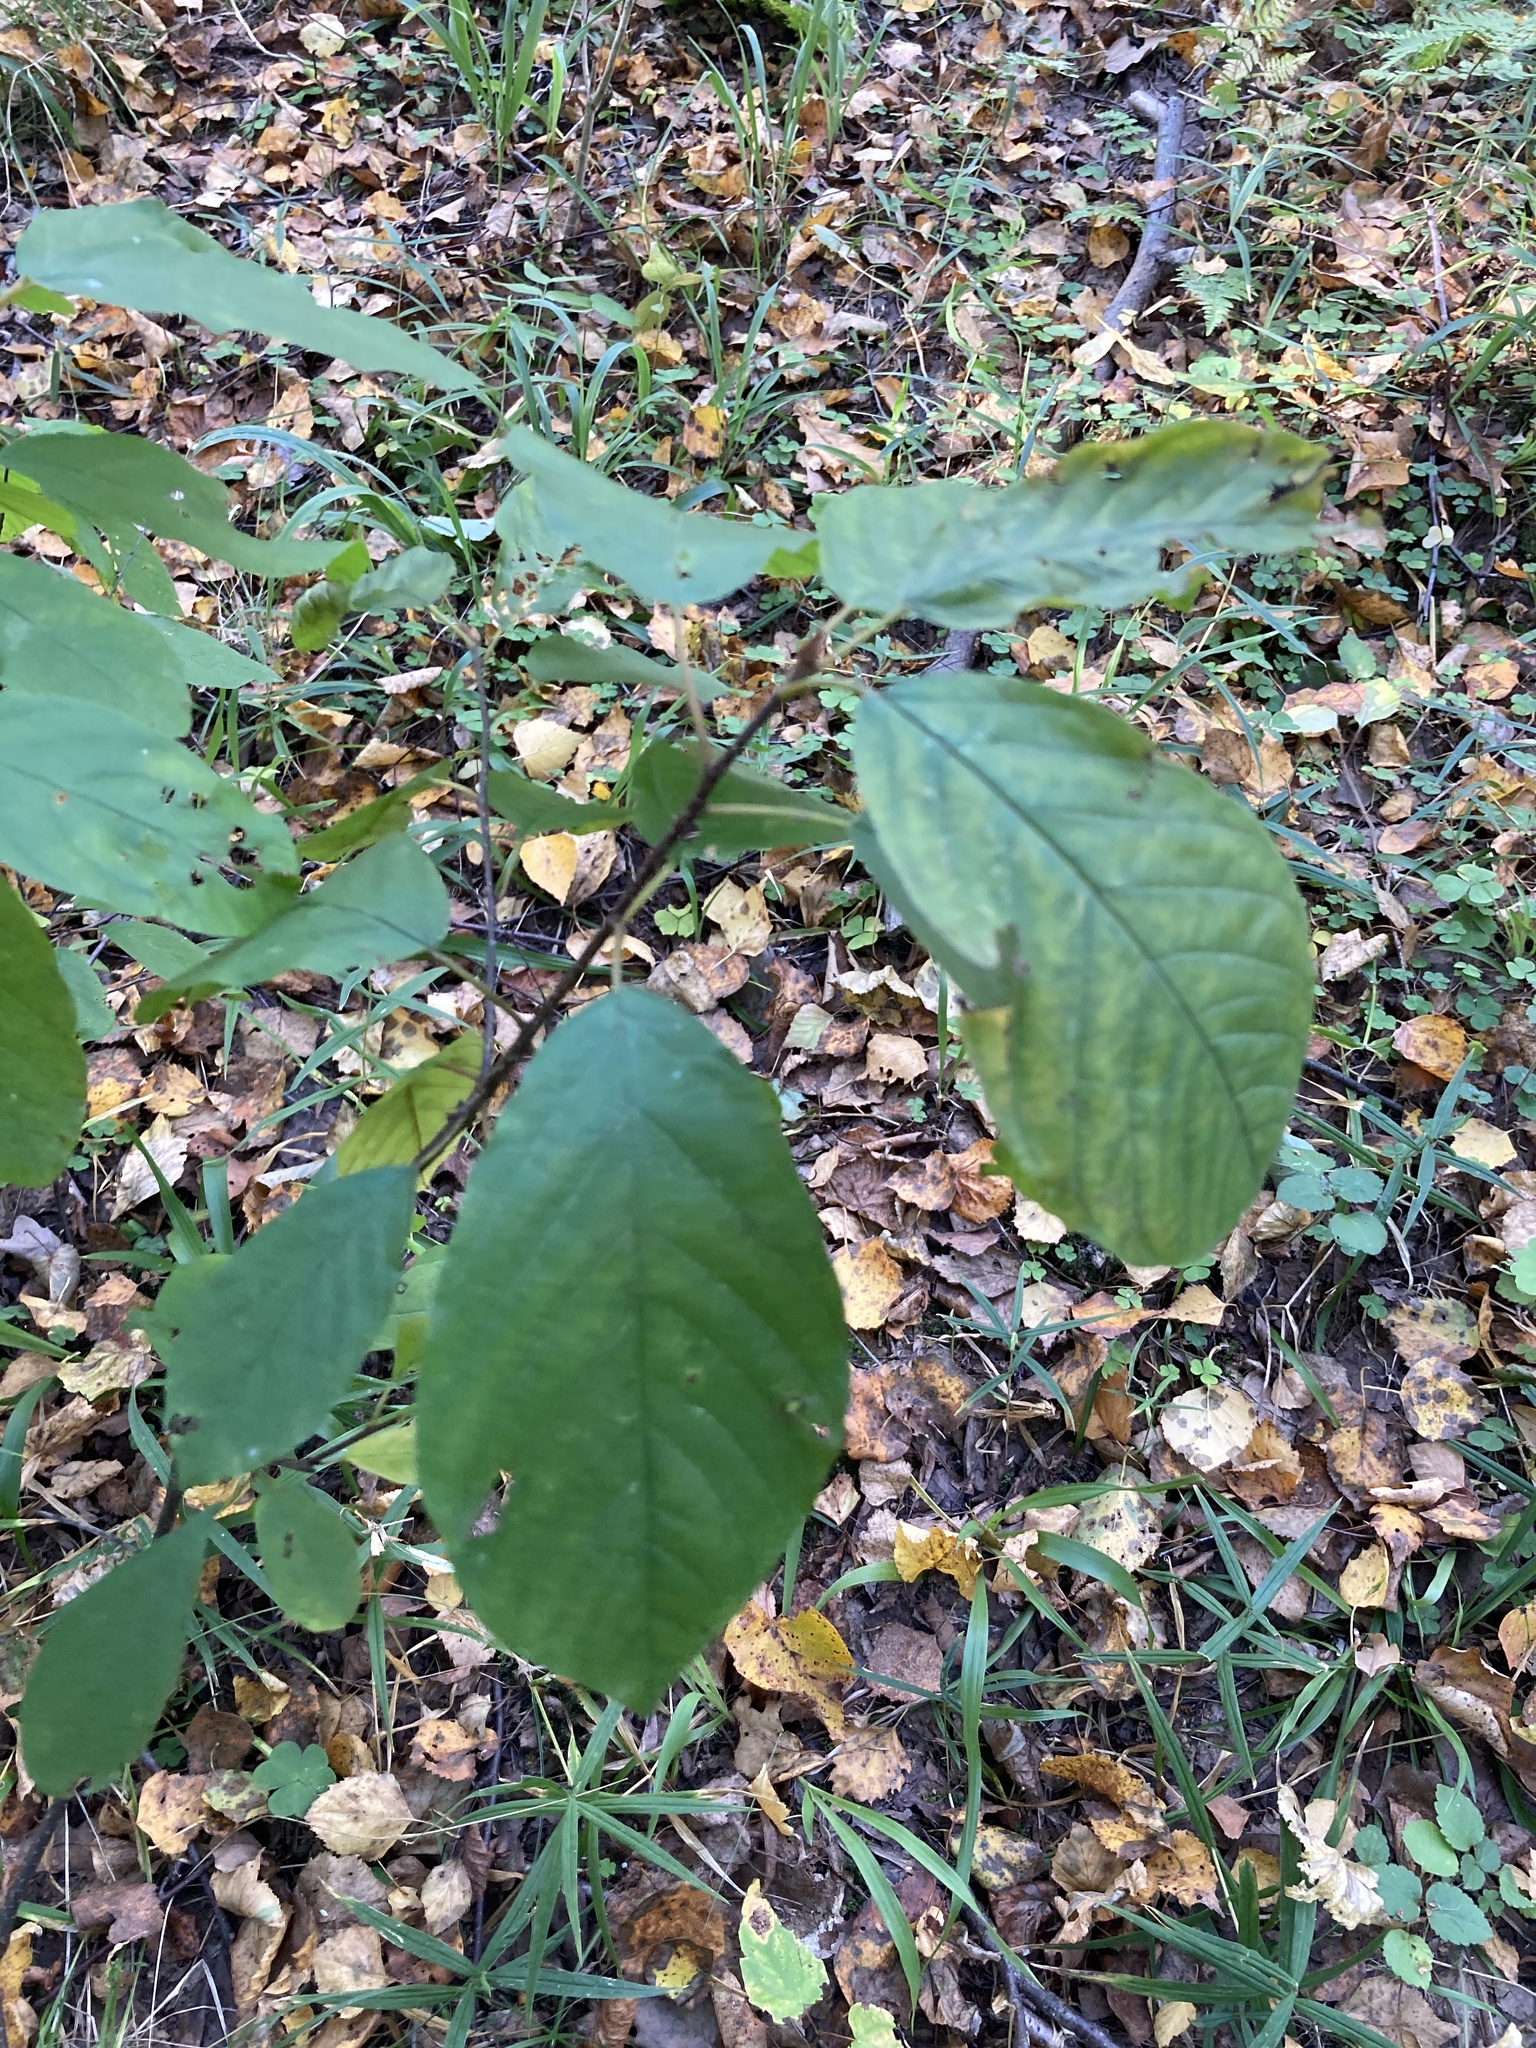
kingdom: Plantae
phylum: Tracheophyta
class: Magnoliopsida
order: Rosales
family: Rhamnaceae
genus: Frangula
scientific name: Frangula alnus
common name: Alder buckthorn
